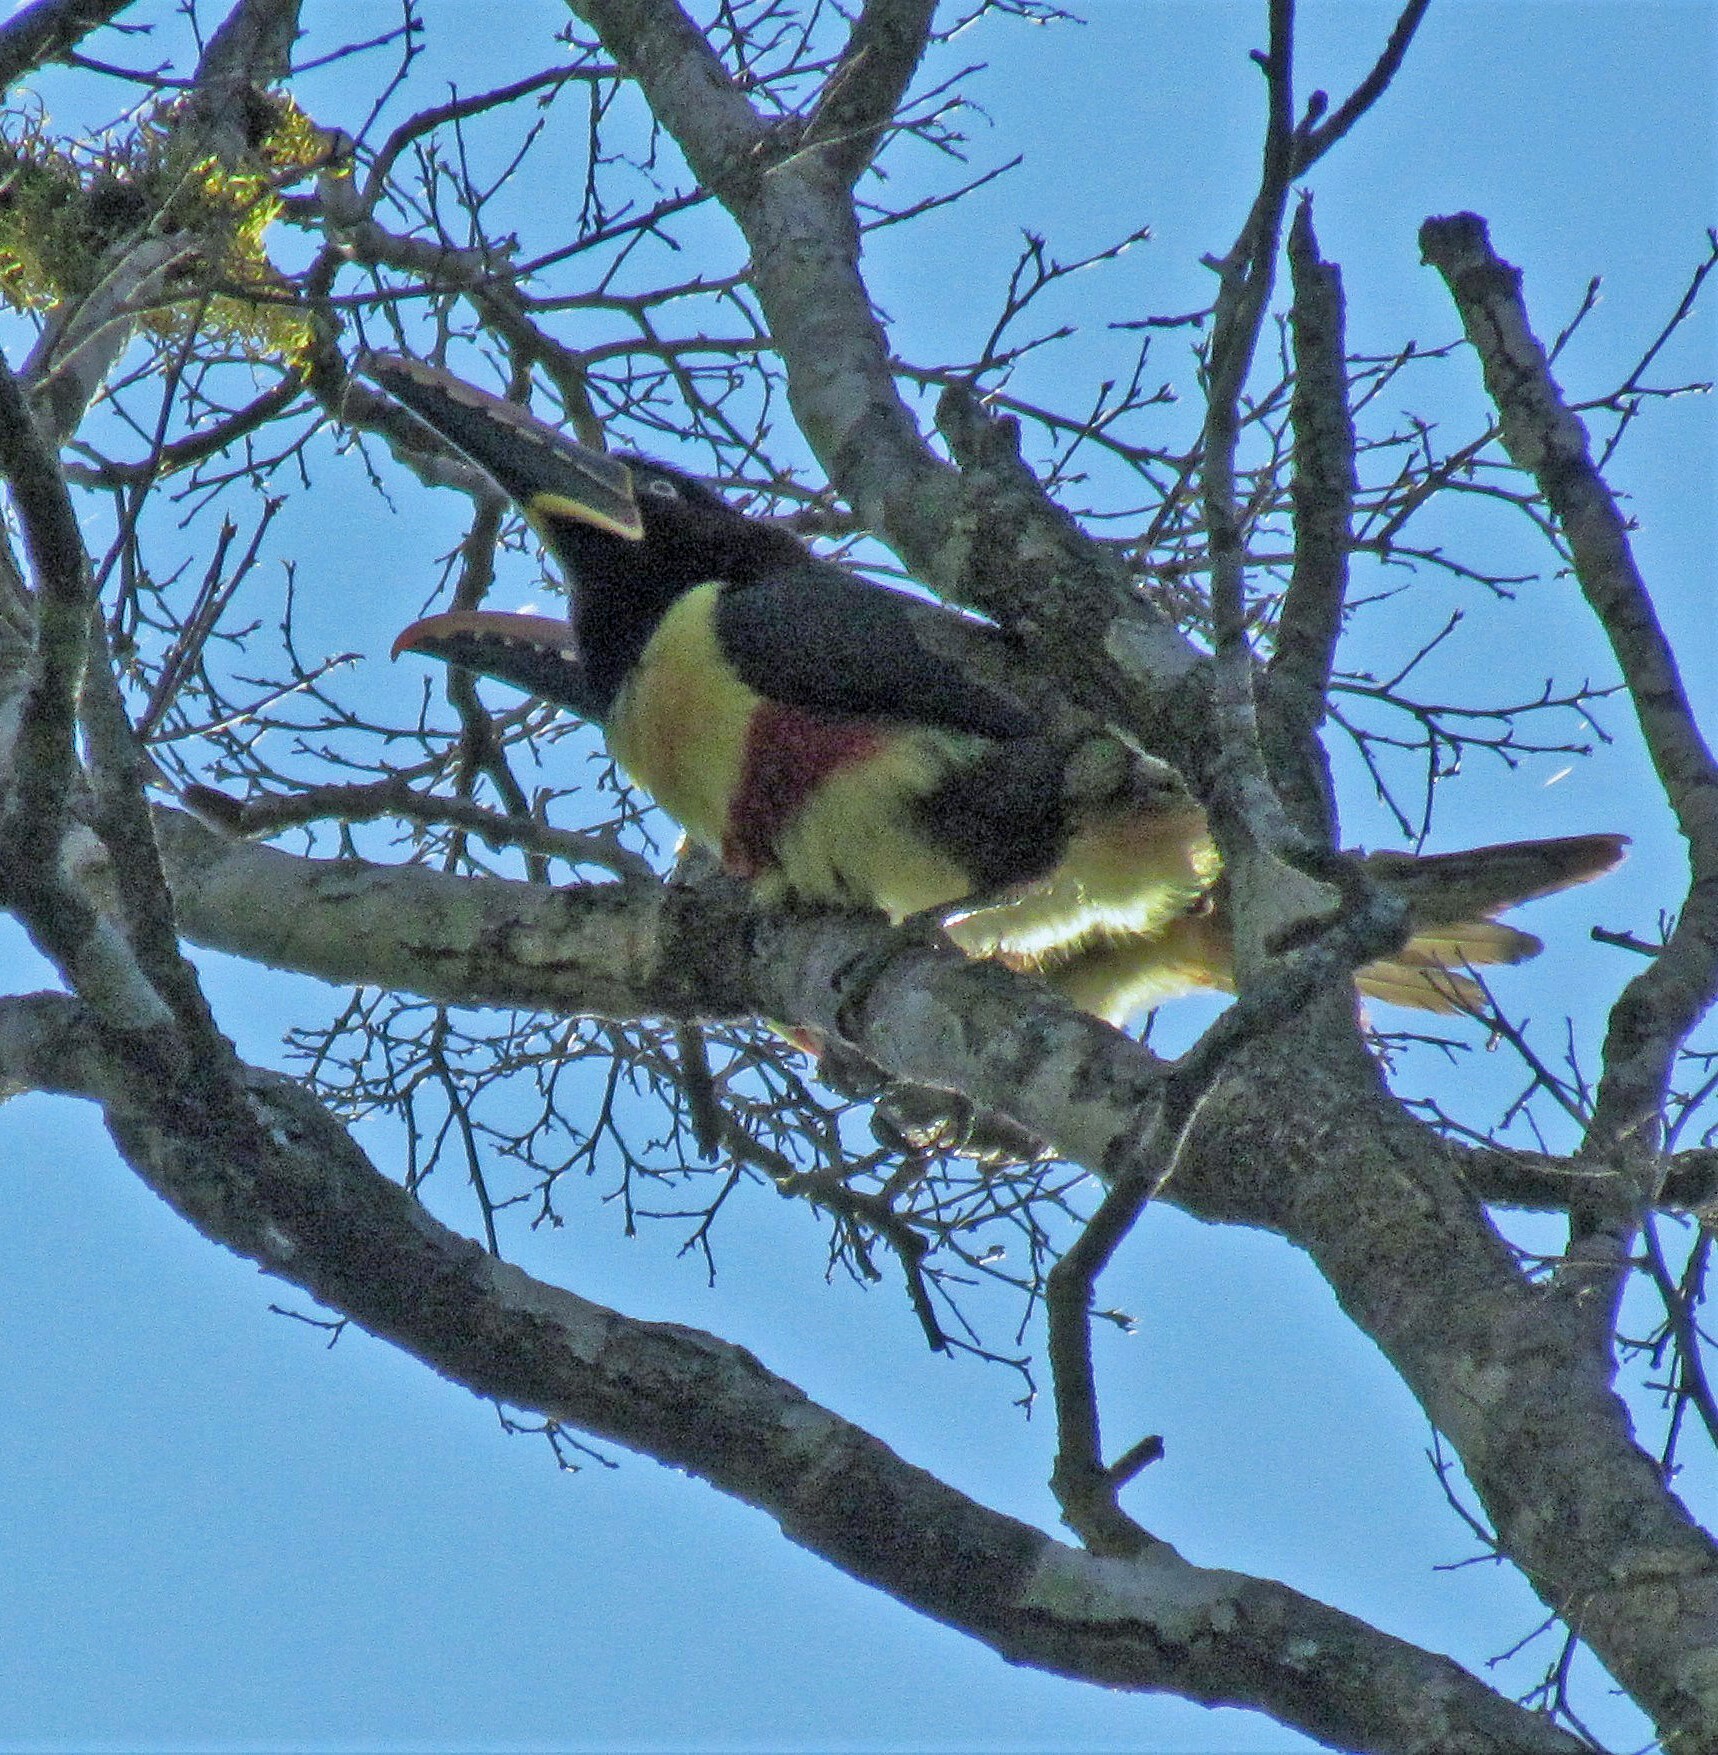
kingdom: Animalia
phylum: Chordata
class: Aves
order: Piciformes
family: Ramphastidae
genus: Pteroglossus
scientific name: Pteroglossus castanotis
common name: Chestnut-eared aracari
